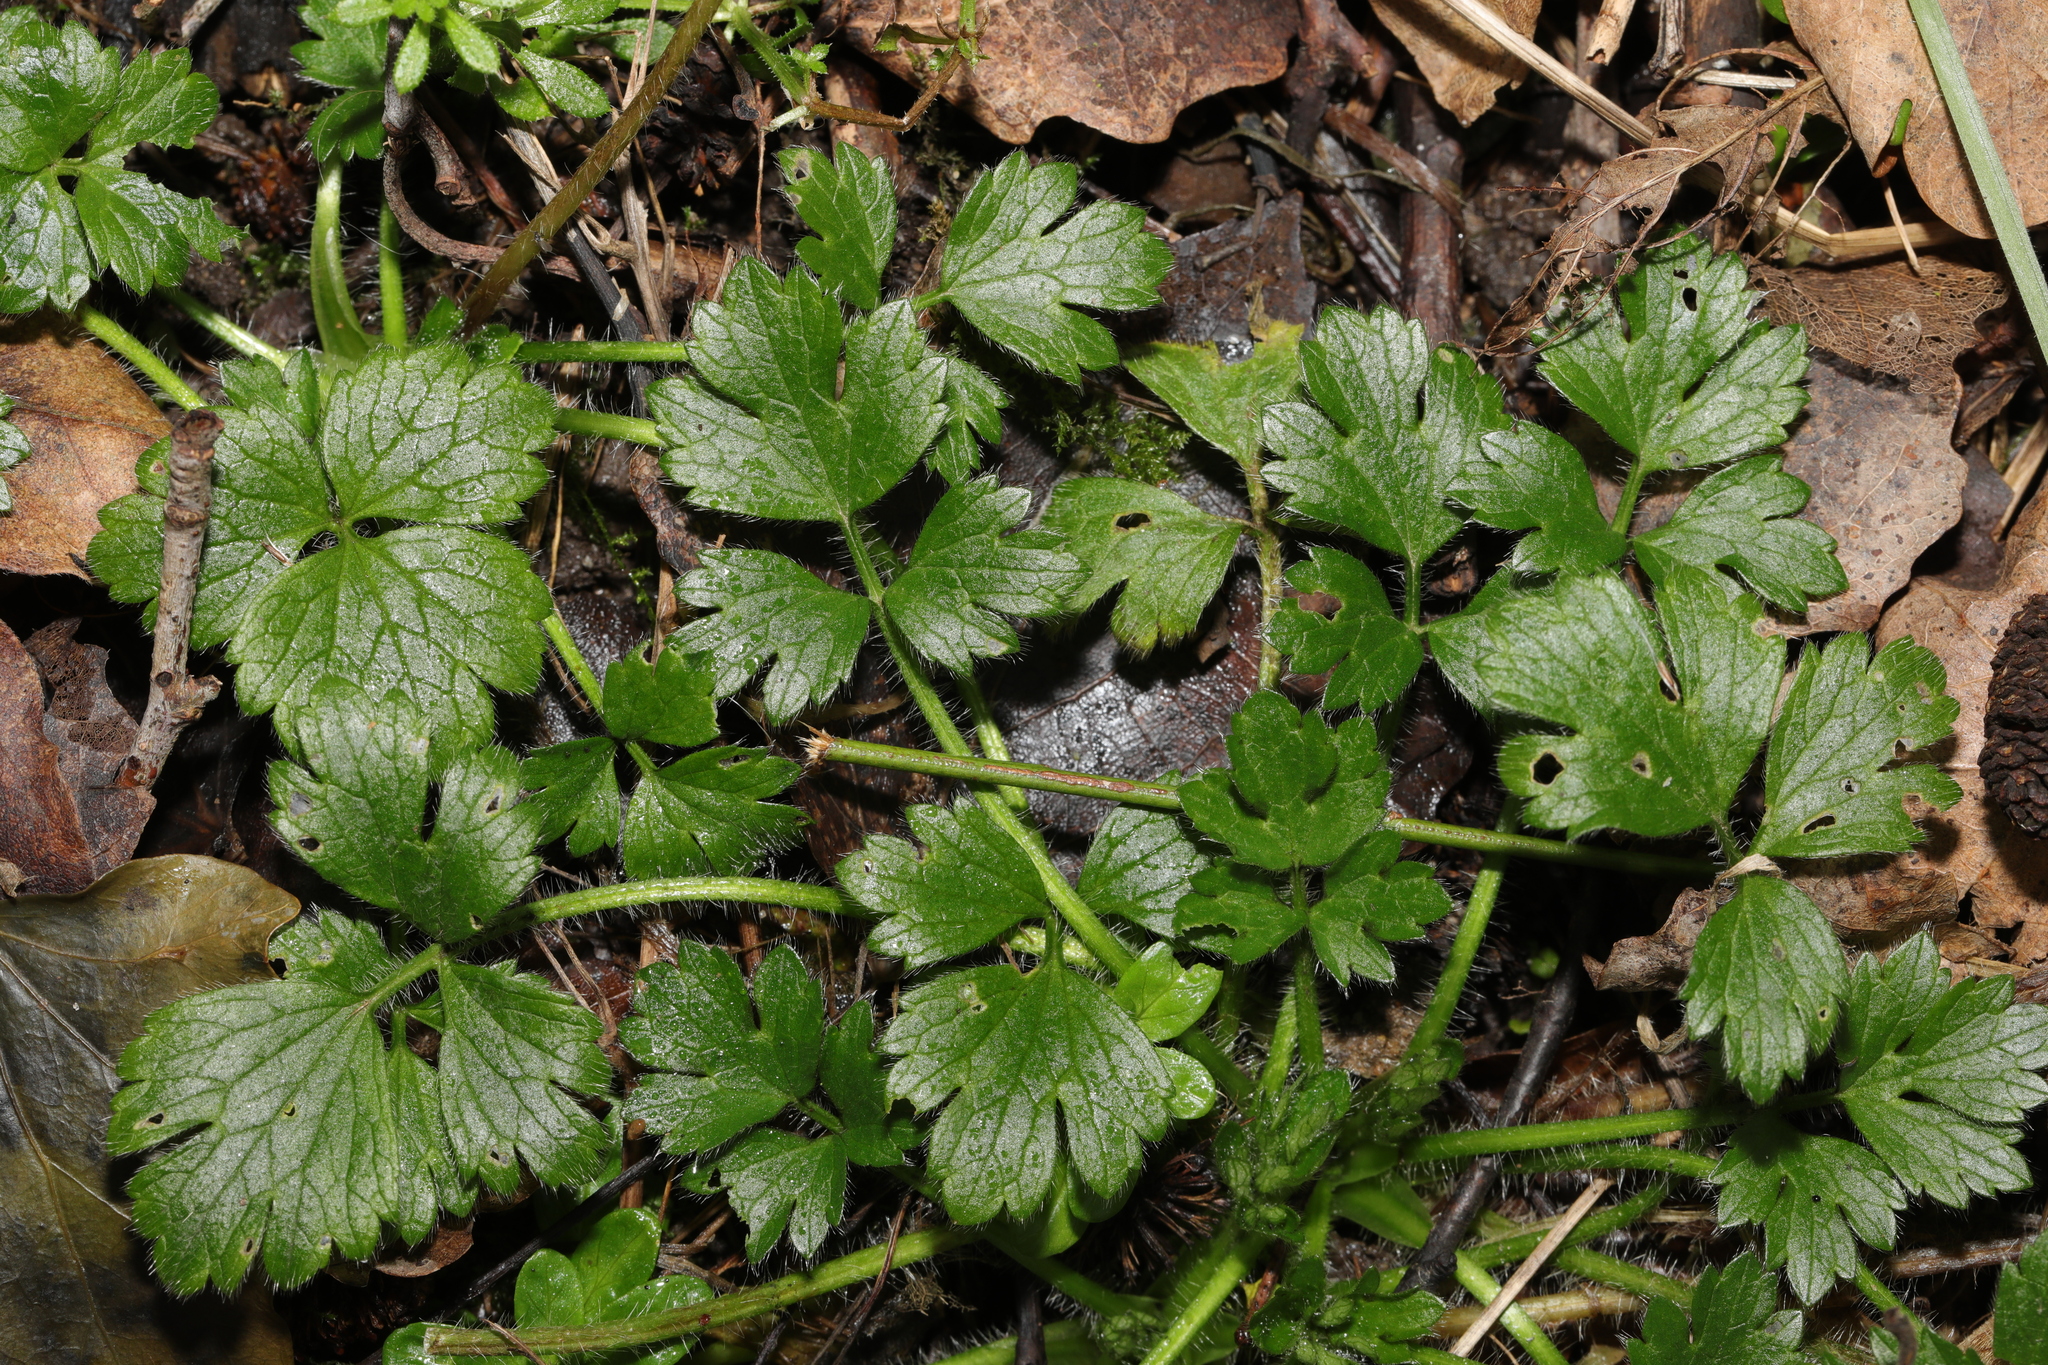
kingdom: Plantae
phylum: Tracheophyta
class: Magnoliopsida
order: Ranunculales
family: Ranunculaceae
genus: Ranunculus
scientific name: Ranunculus repens
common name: Creeping buttercup
